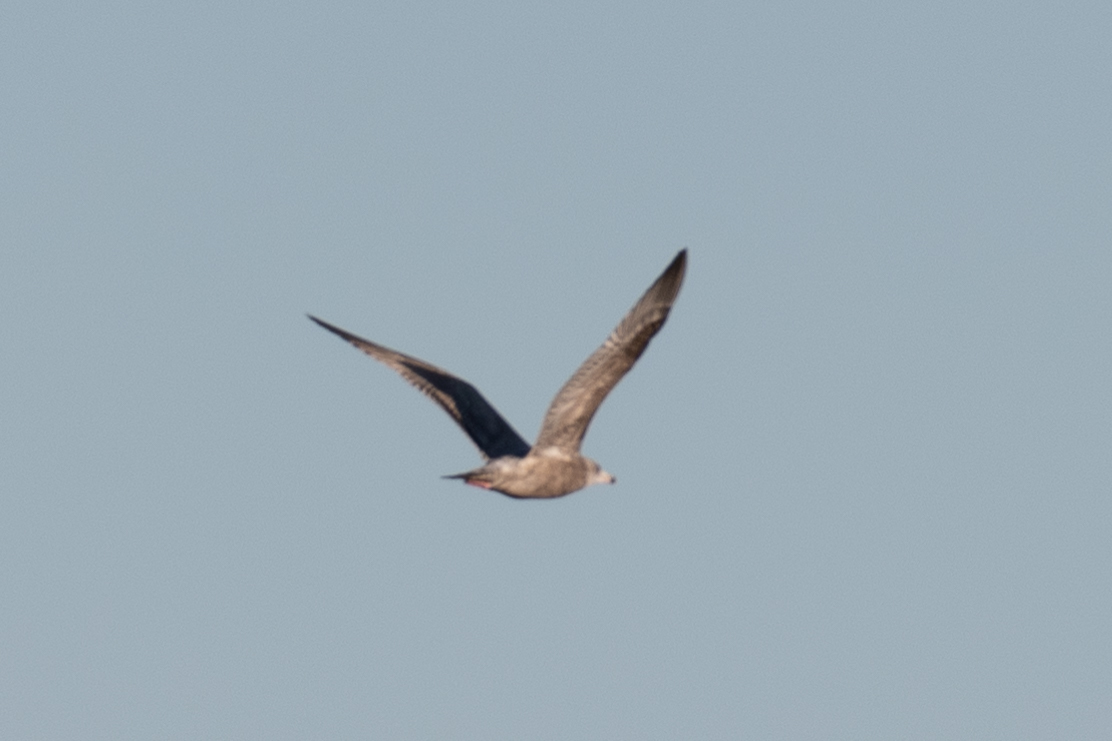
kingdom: Animalia
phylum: Chordata
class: Aves
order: Charadriiformes
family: Laridae
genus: Larus
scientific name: Larus argentatus
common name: Herring gull
